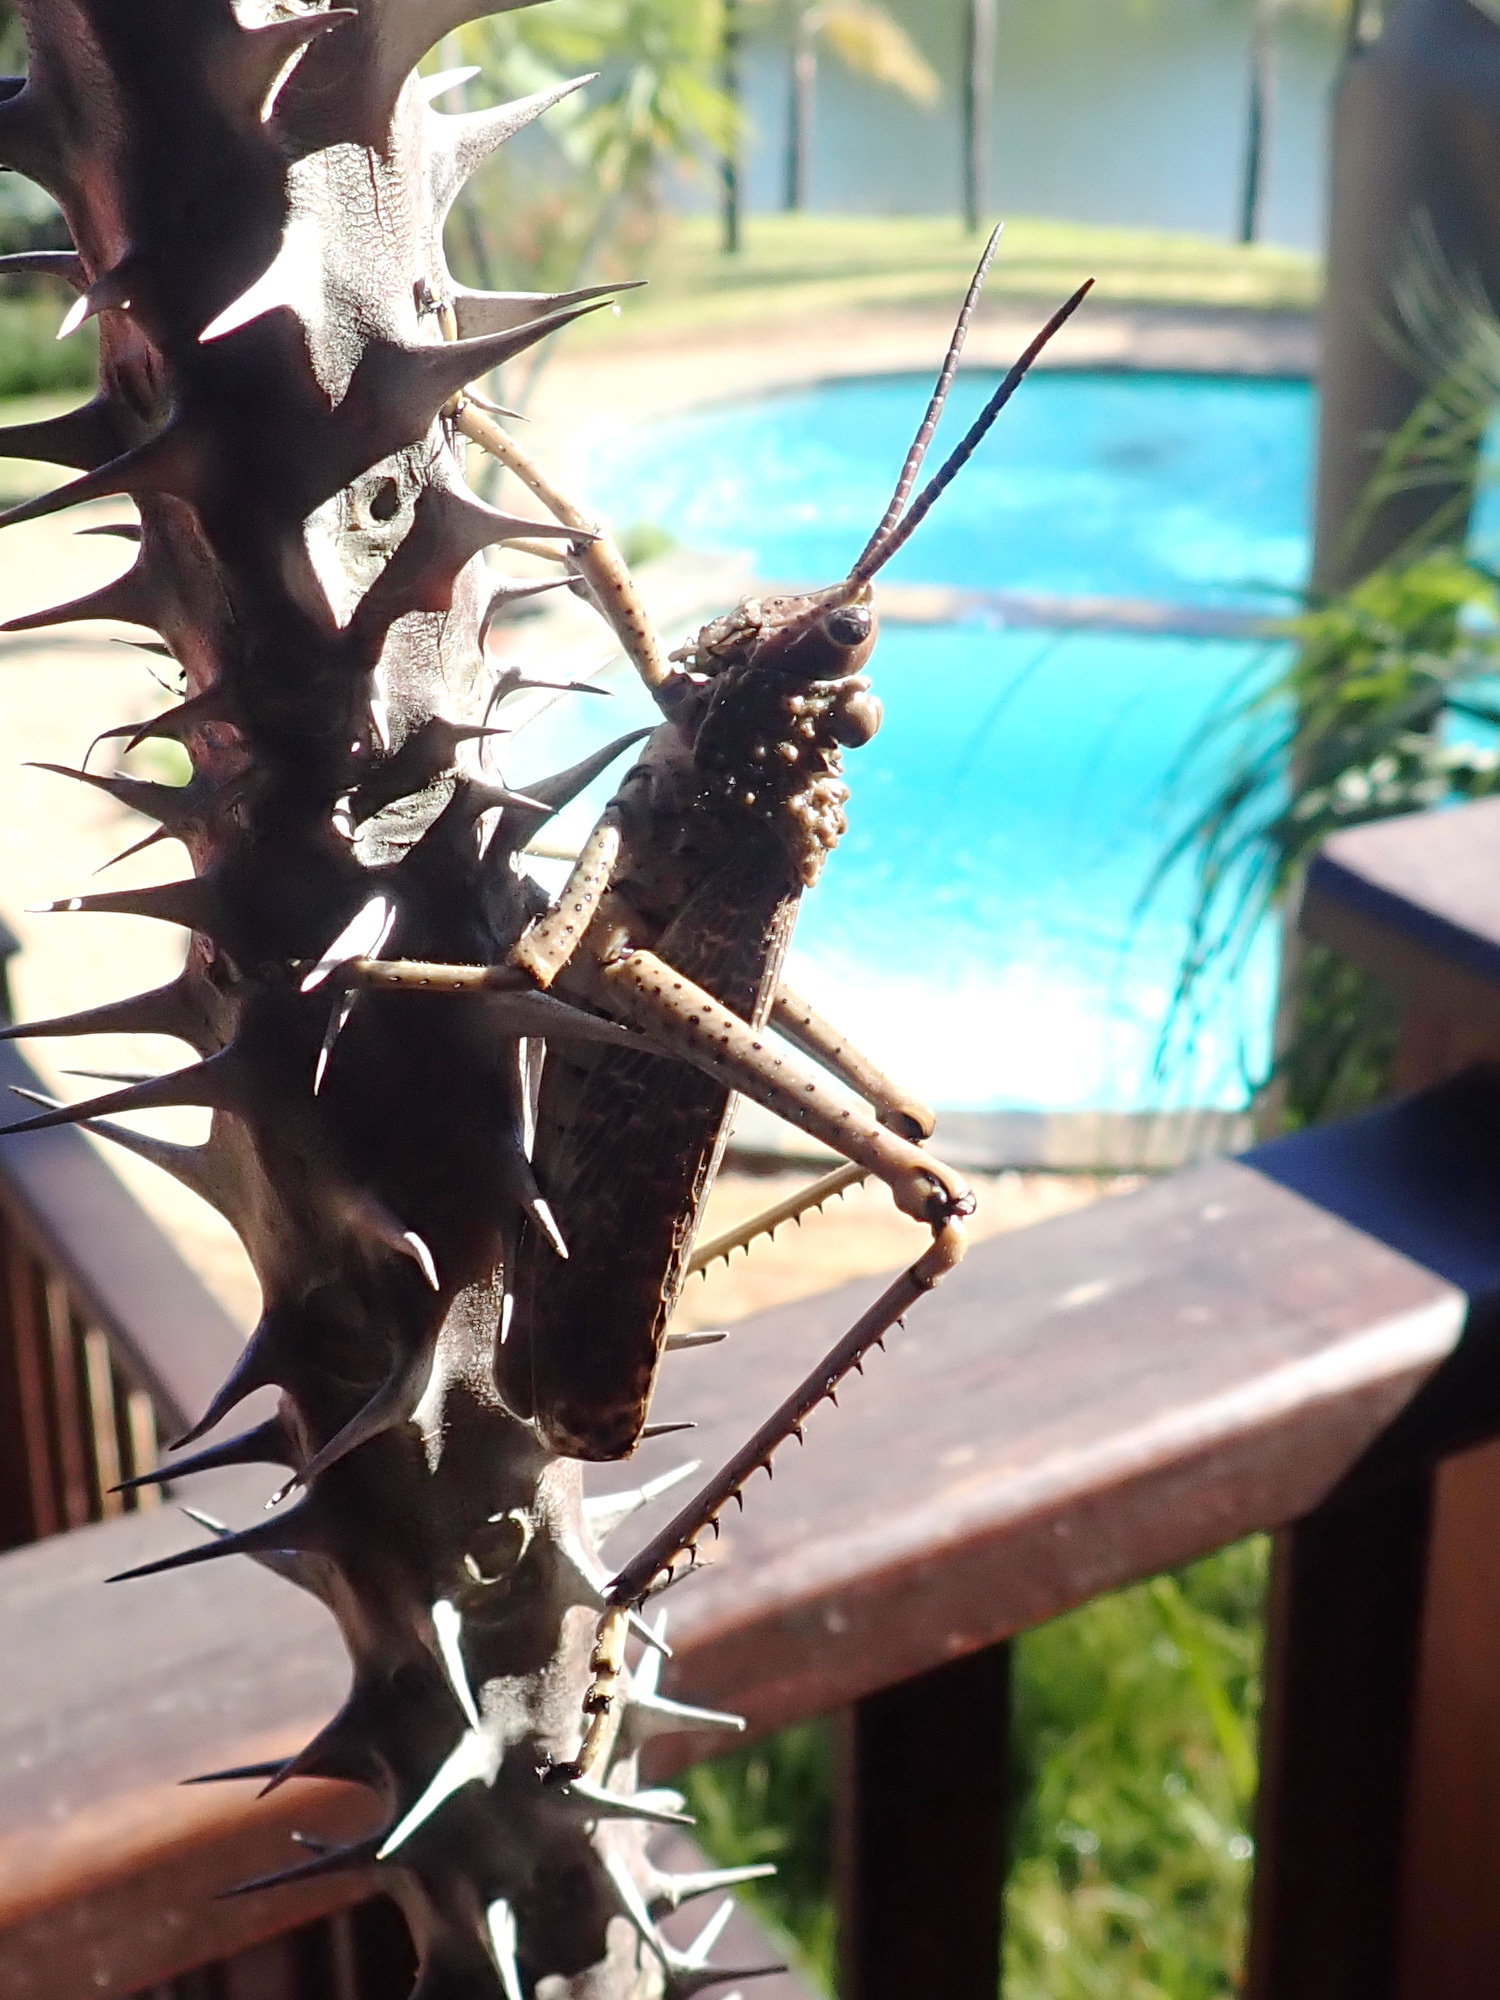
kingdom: Animalia
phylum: Arthropoda
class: Insecta
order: Orthoptera
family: Pyrgomorphidae
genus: Phymateus
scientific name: Phymateus leprosus
